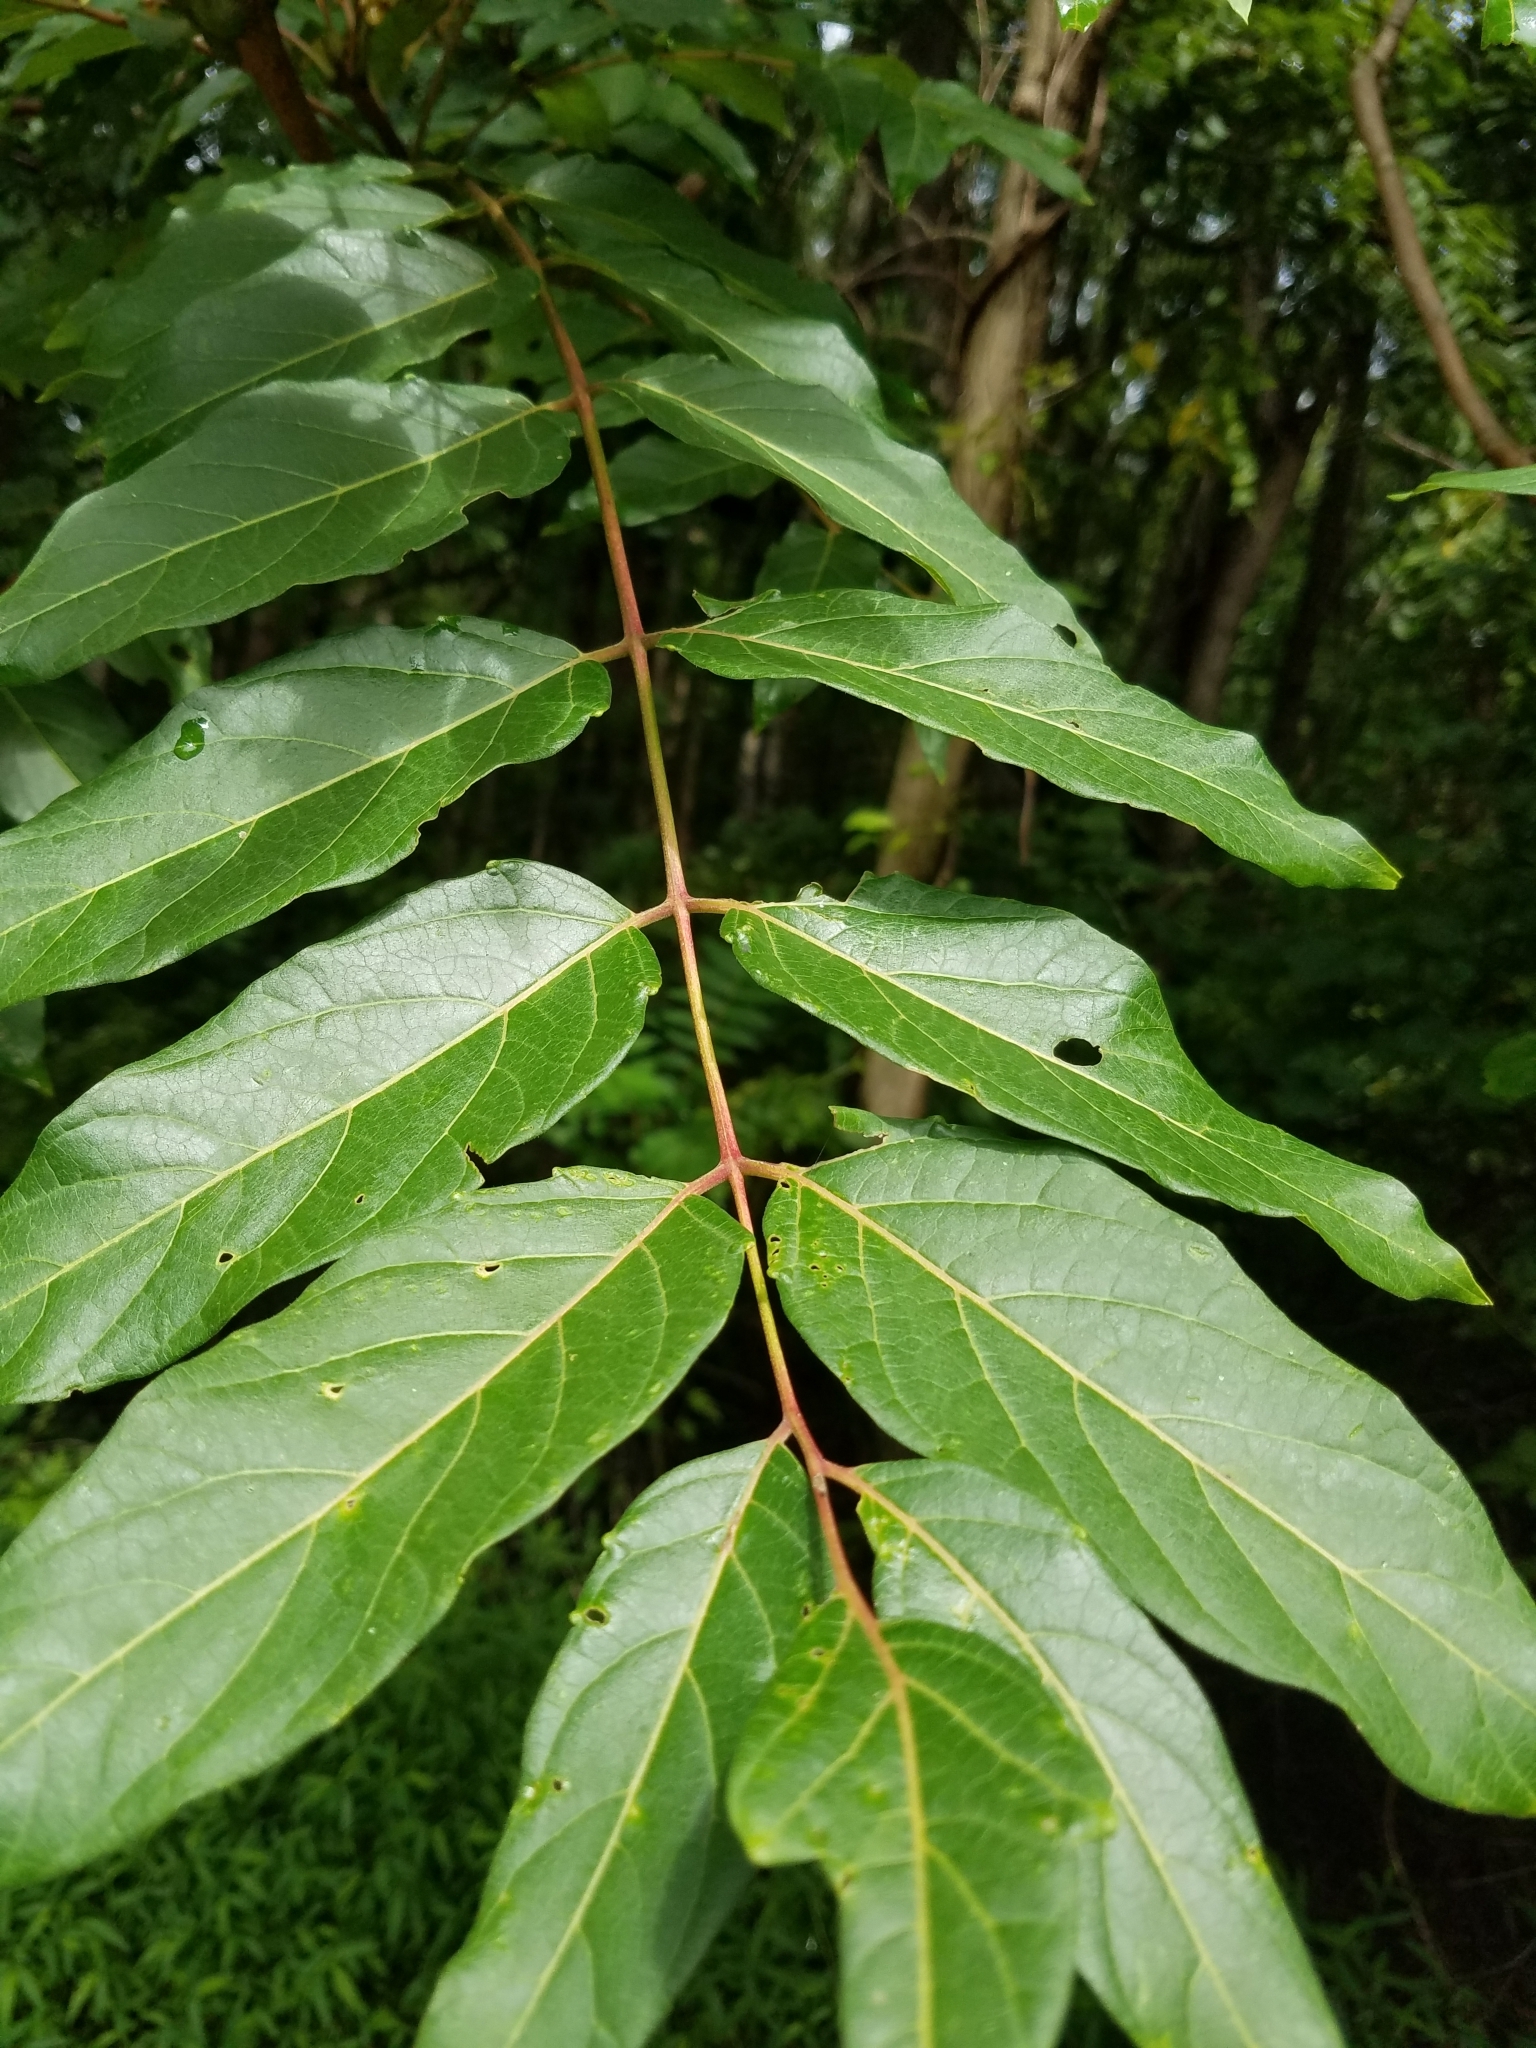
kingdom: Plantae
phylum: Tracheophyta
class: Magnoliopsida
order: Sapindales
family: Simaroubaceae
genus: Ailanthus
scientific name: Ailanthus altissima
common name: Tree-of-heaven
